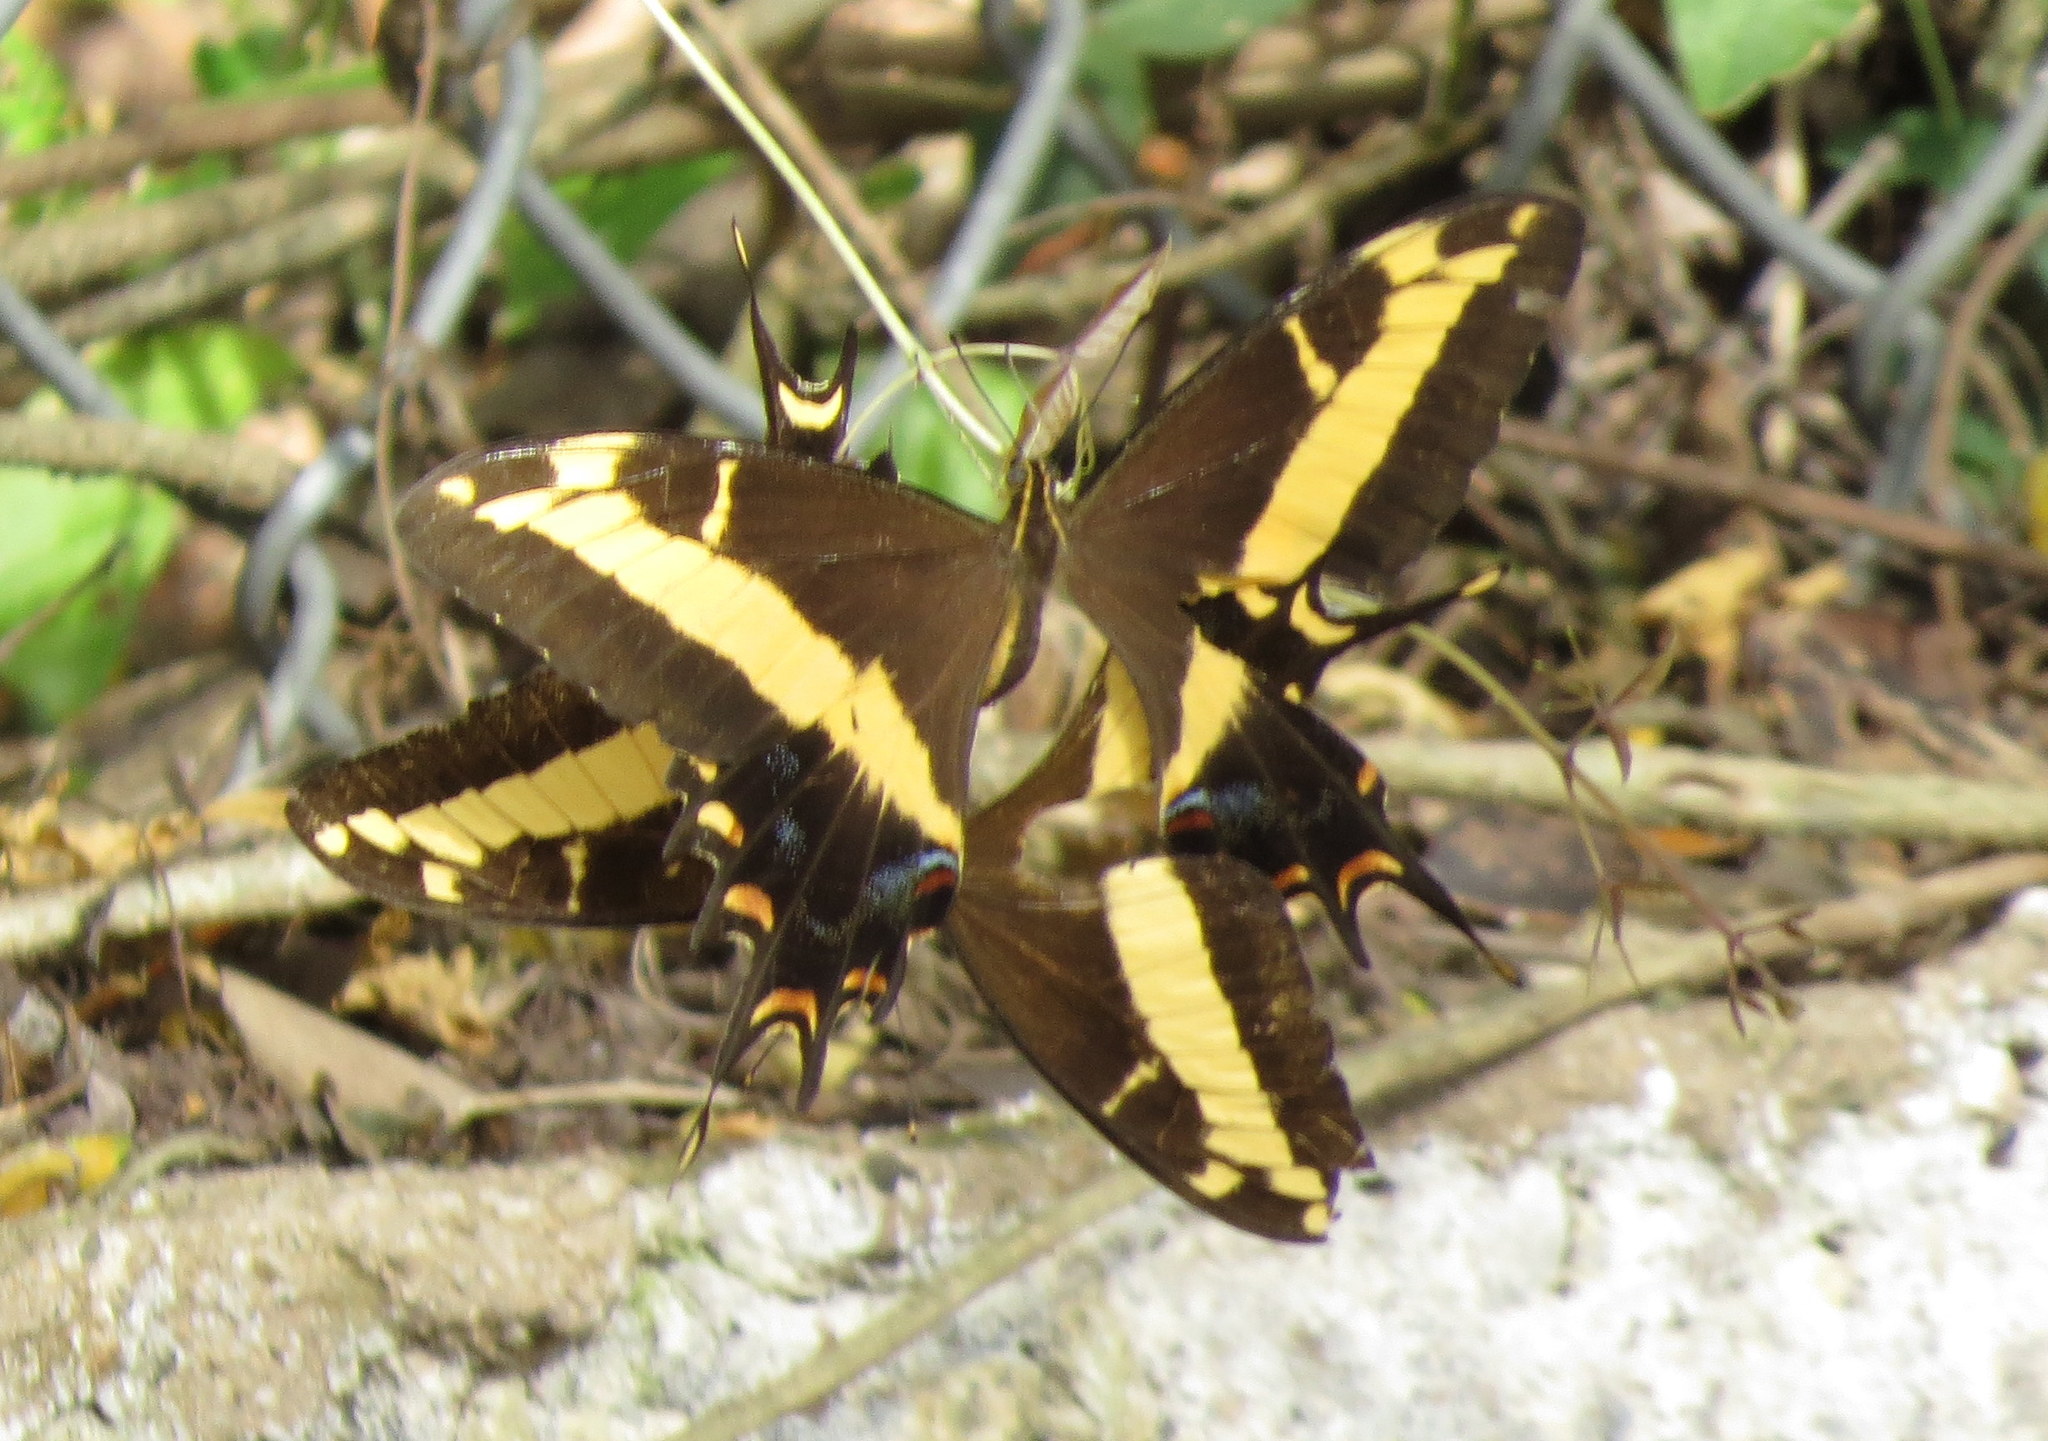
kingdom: Animalia
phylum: Arthropoda
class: Insecta
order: Lepidoptera
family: Papilionidae
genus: Papilio
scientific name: Papilio andraemon
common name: Bahaman swallowtail
